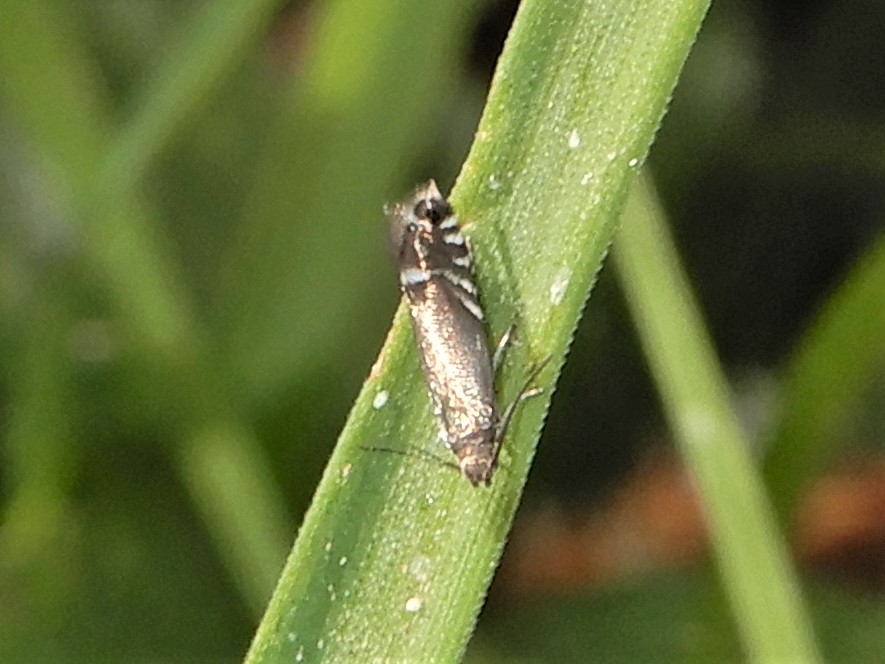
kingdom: Animalia
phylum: Arthropoda
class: Insecta
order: Lepidoptera
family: Glyphipterigidae
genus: Glyphipterix
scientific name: Glyphipterix simpliciella
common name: Cocksfoot moth
